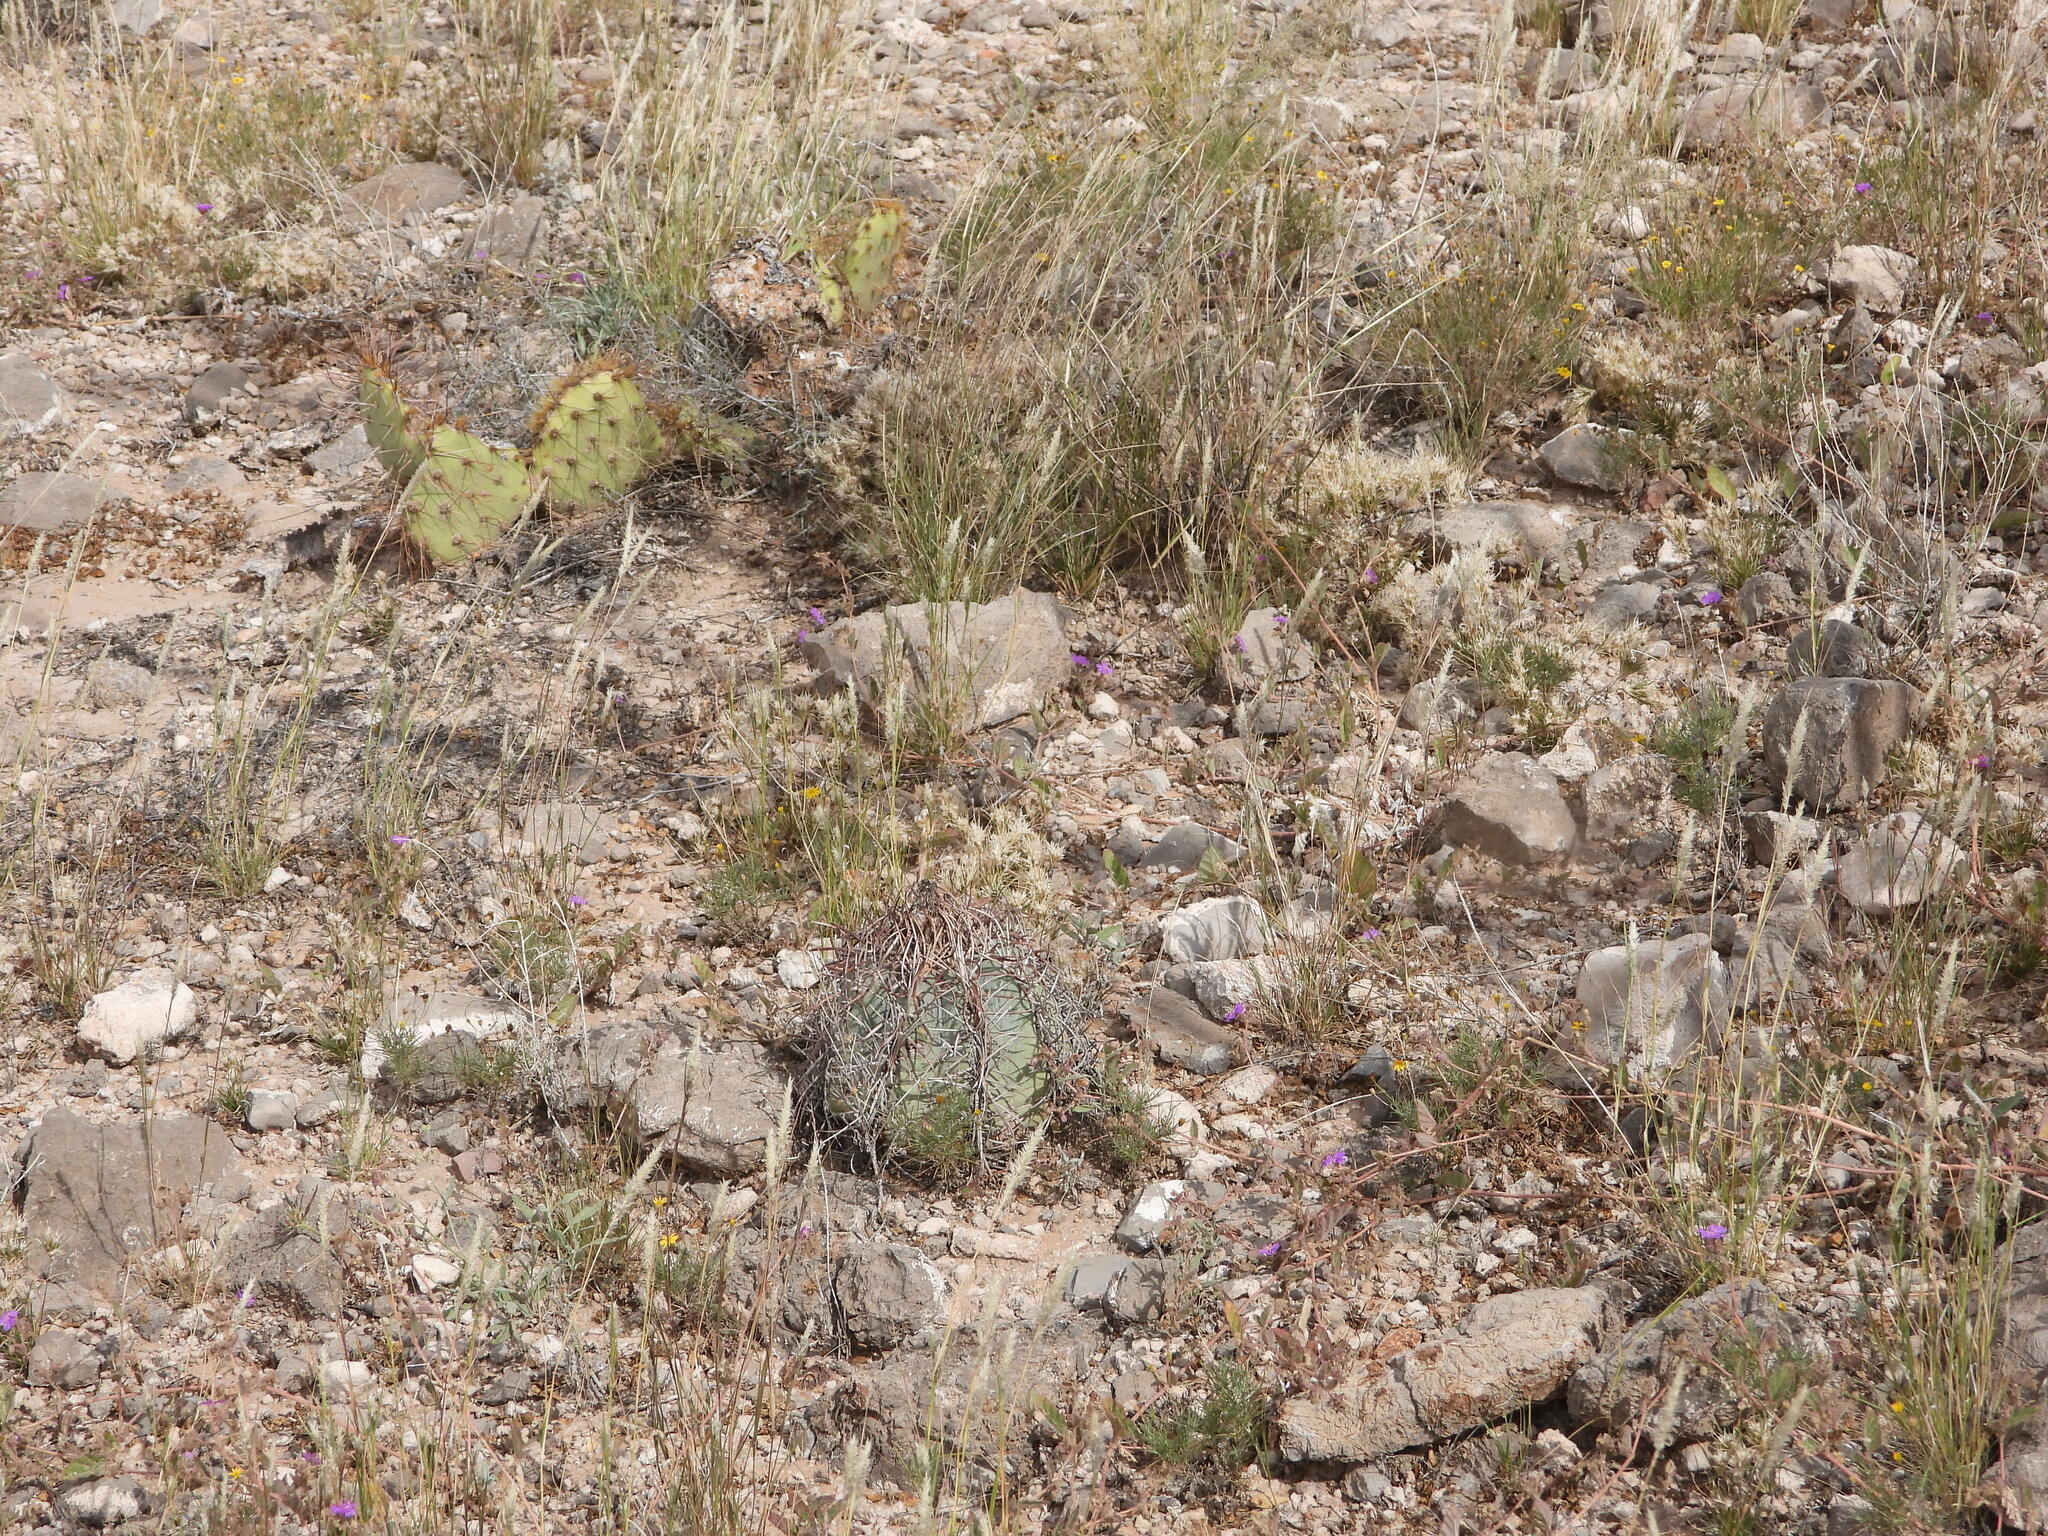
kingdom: Plantae
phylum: Tracheophyta
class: Magnoliopsida
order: Caryophyllales
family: Cactaceae
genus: Echinocactus
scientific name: Echinocactus horizonthalonius
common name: Devilshead
